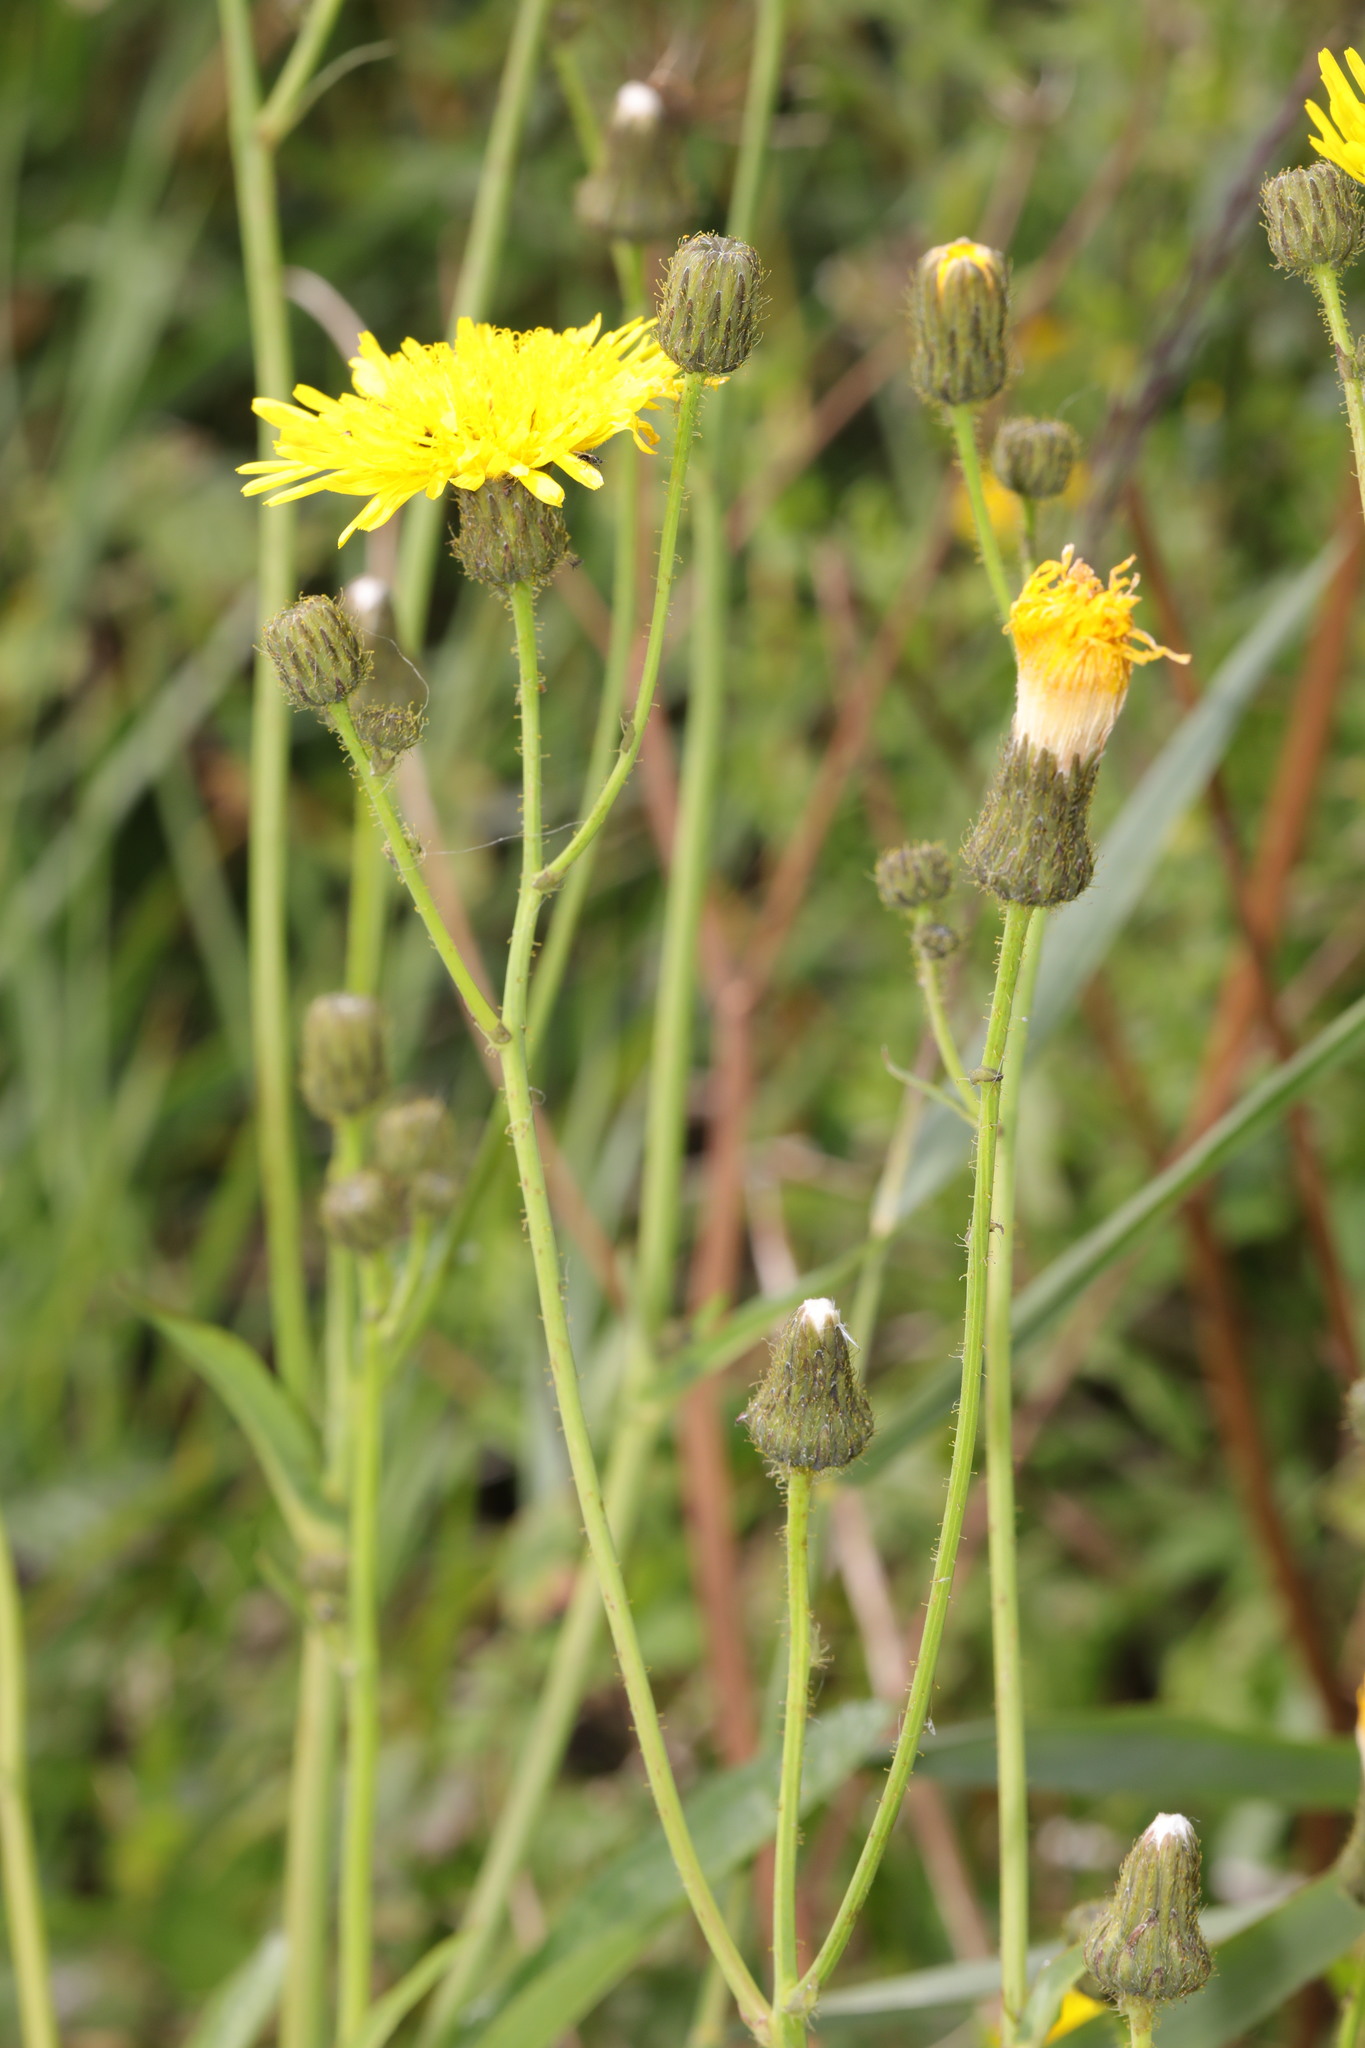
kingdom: Plantae
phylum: Tracheophyta
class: Magnoliopsida
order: Asterales
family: Asteraceae
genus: Sonchus
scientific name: Sonchus arvensis
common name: Perennial sow-thistle
